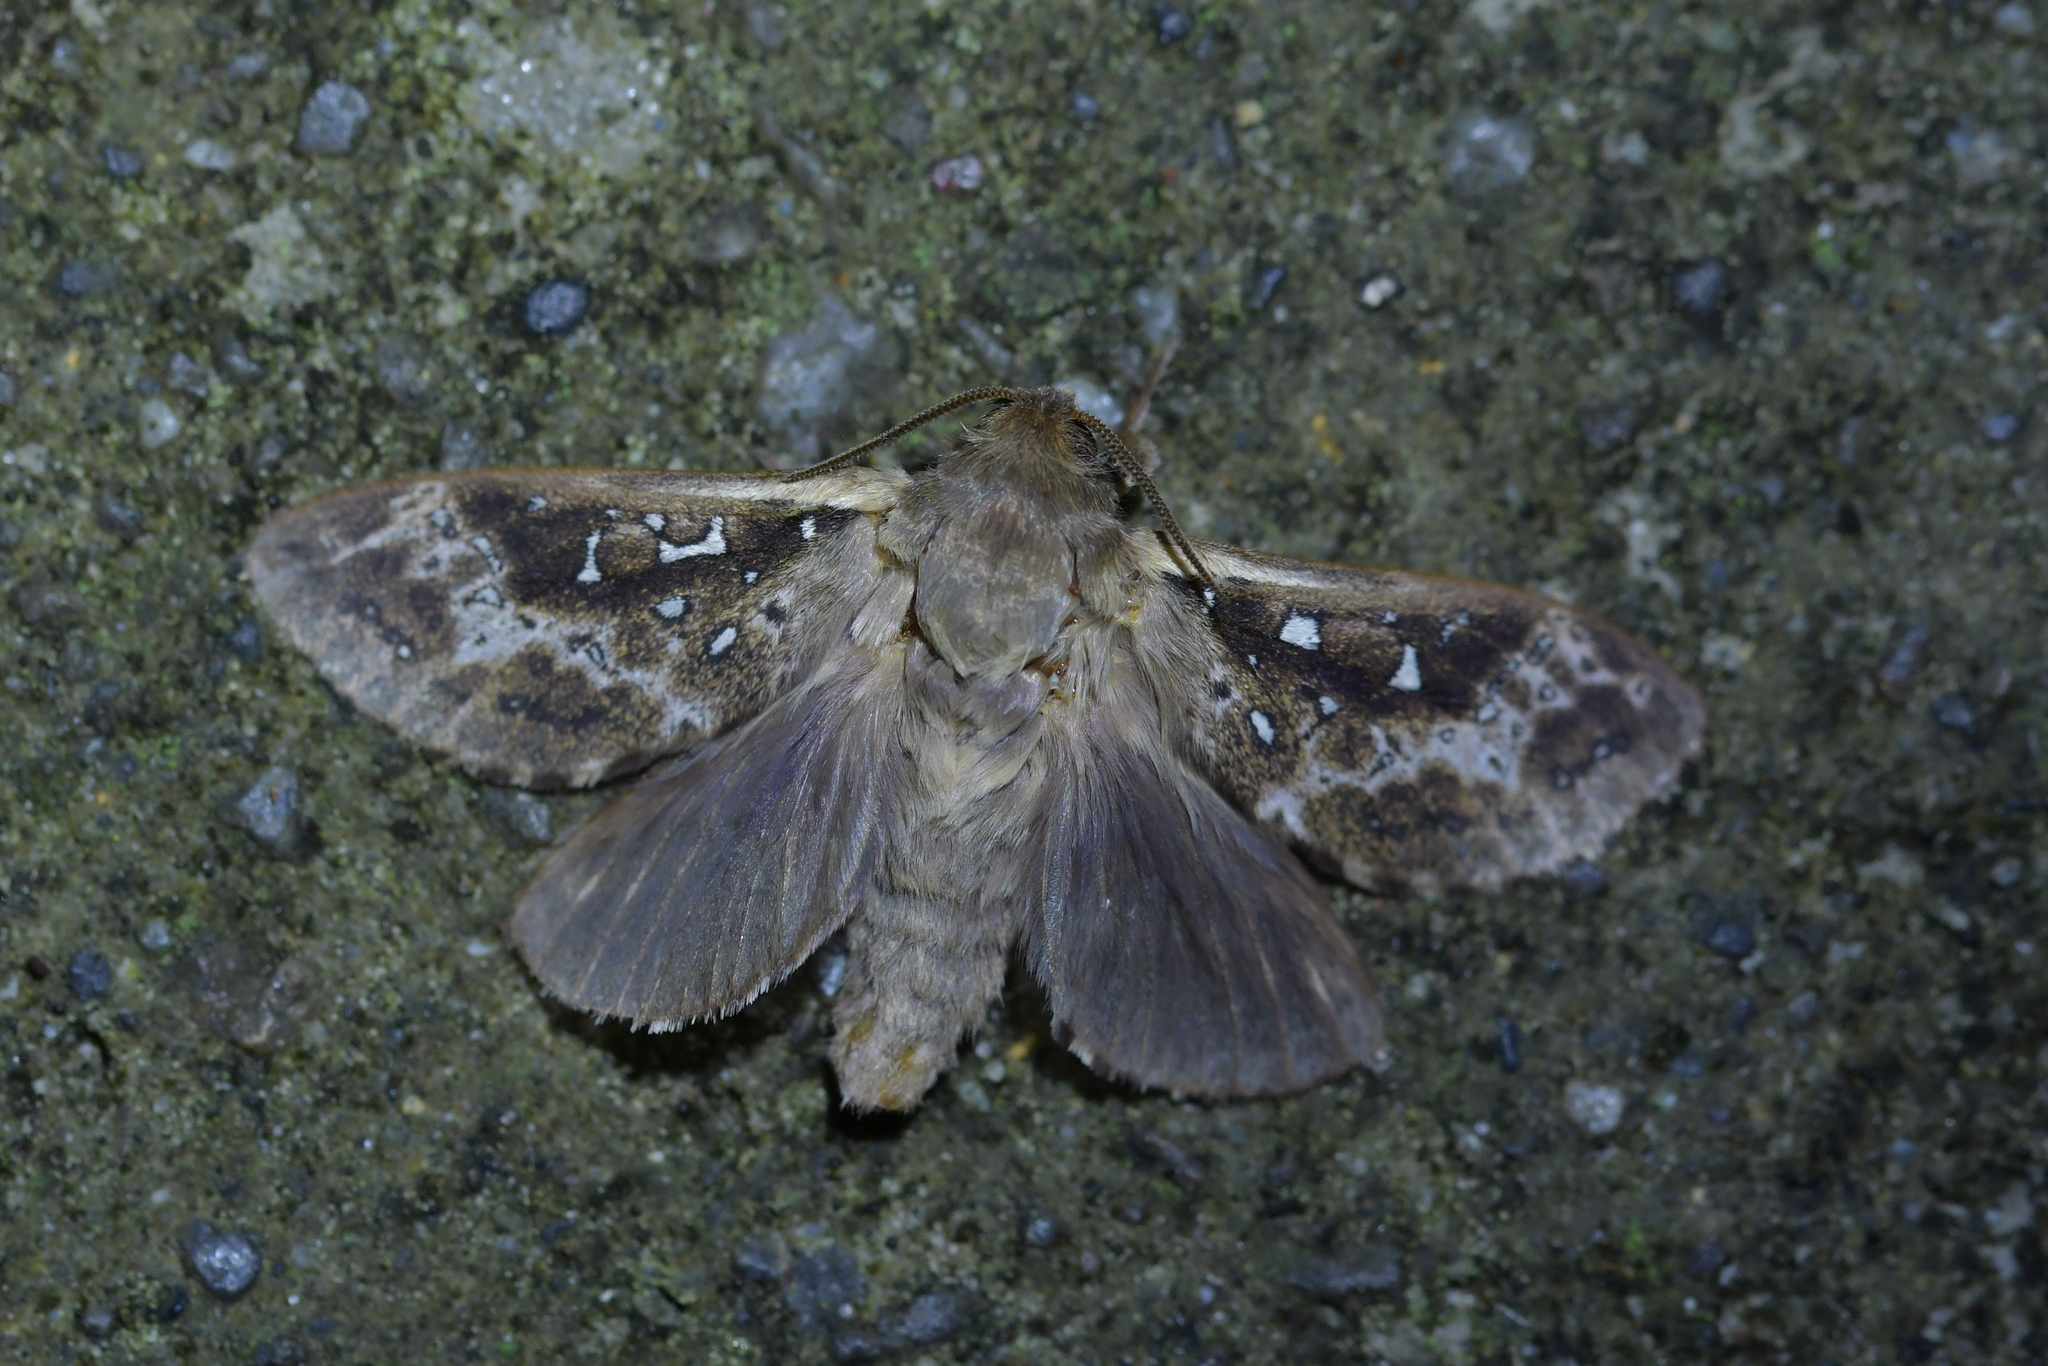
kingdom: Animalia
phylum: Arthropoda
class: Insecta
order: Lepidoptera
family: Hepialidae
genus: Wiseana
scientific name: Wiseana cervinata
